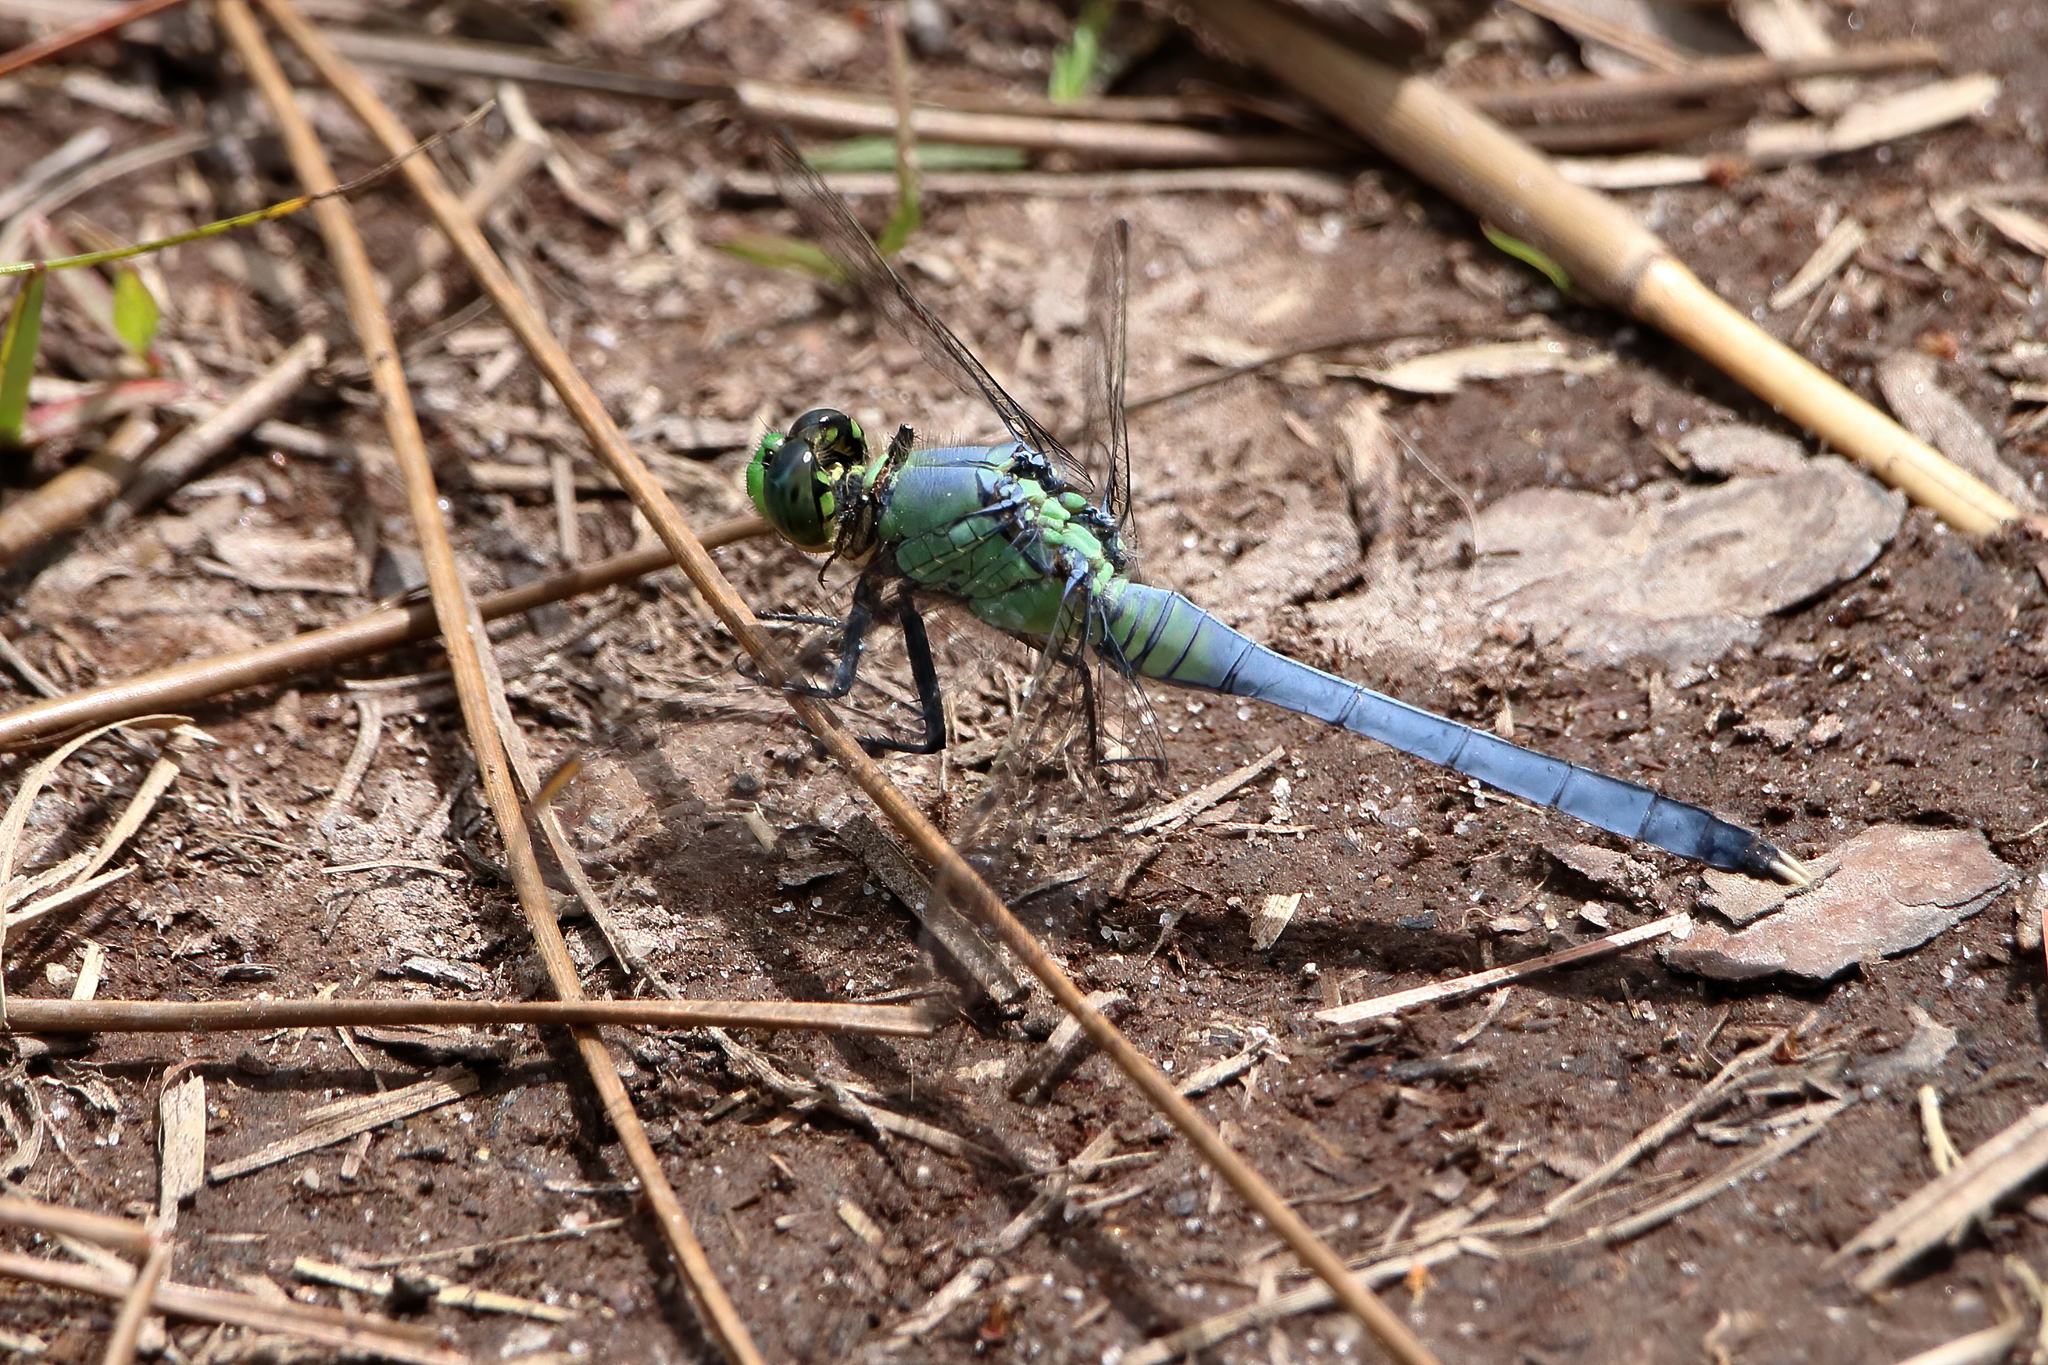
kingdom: Animalia
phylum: Arthropoda
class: Insecta
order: Odonata
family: Libellulidae
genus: Erythemis
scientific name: Erythemis simplicicollis
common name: Eastern pondhawk
